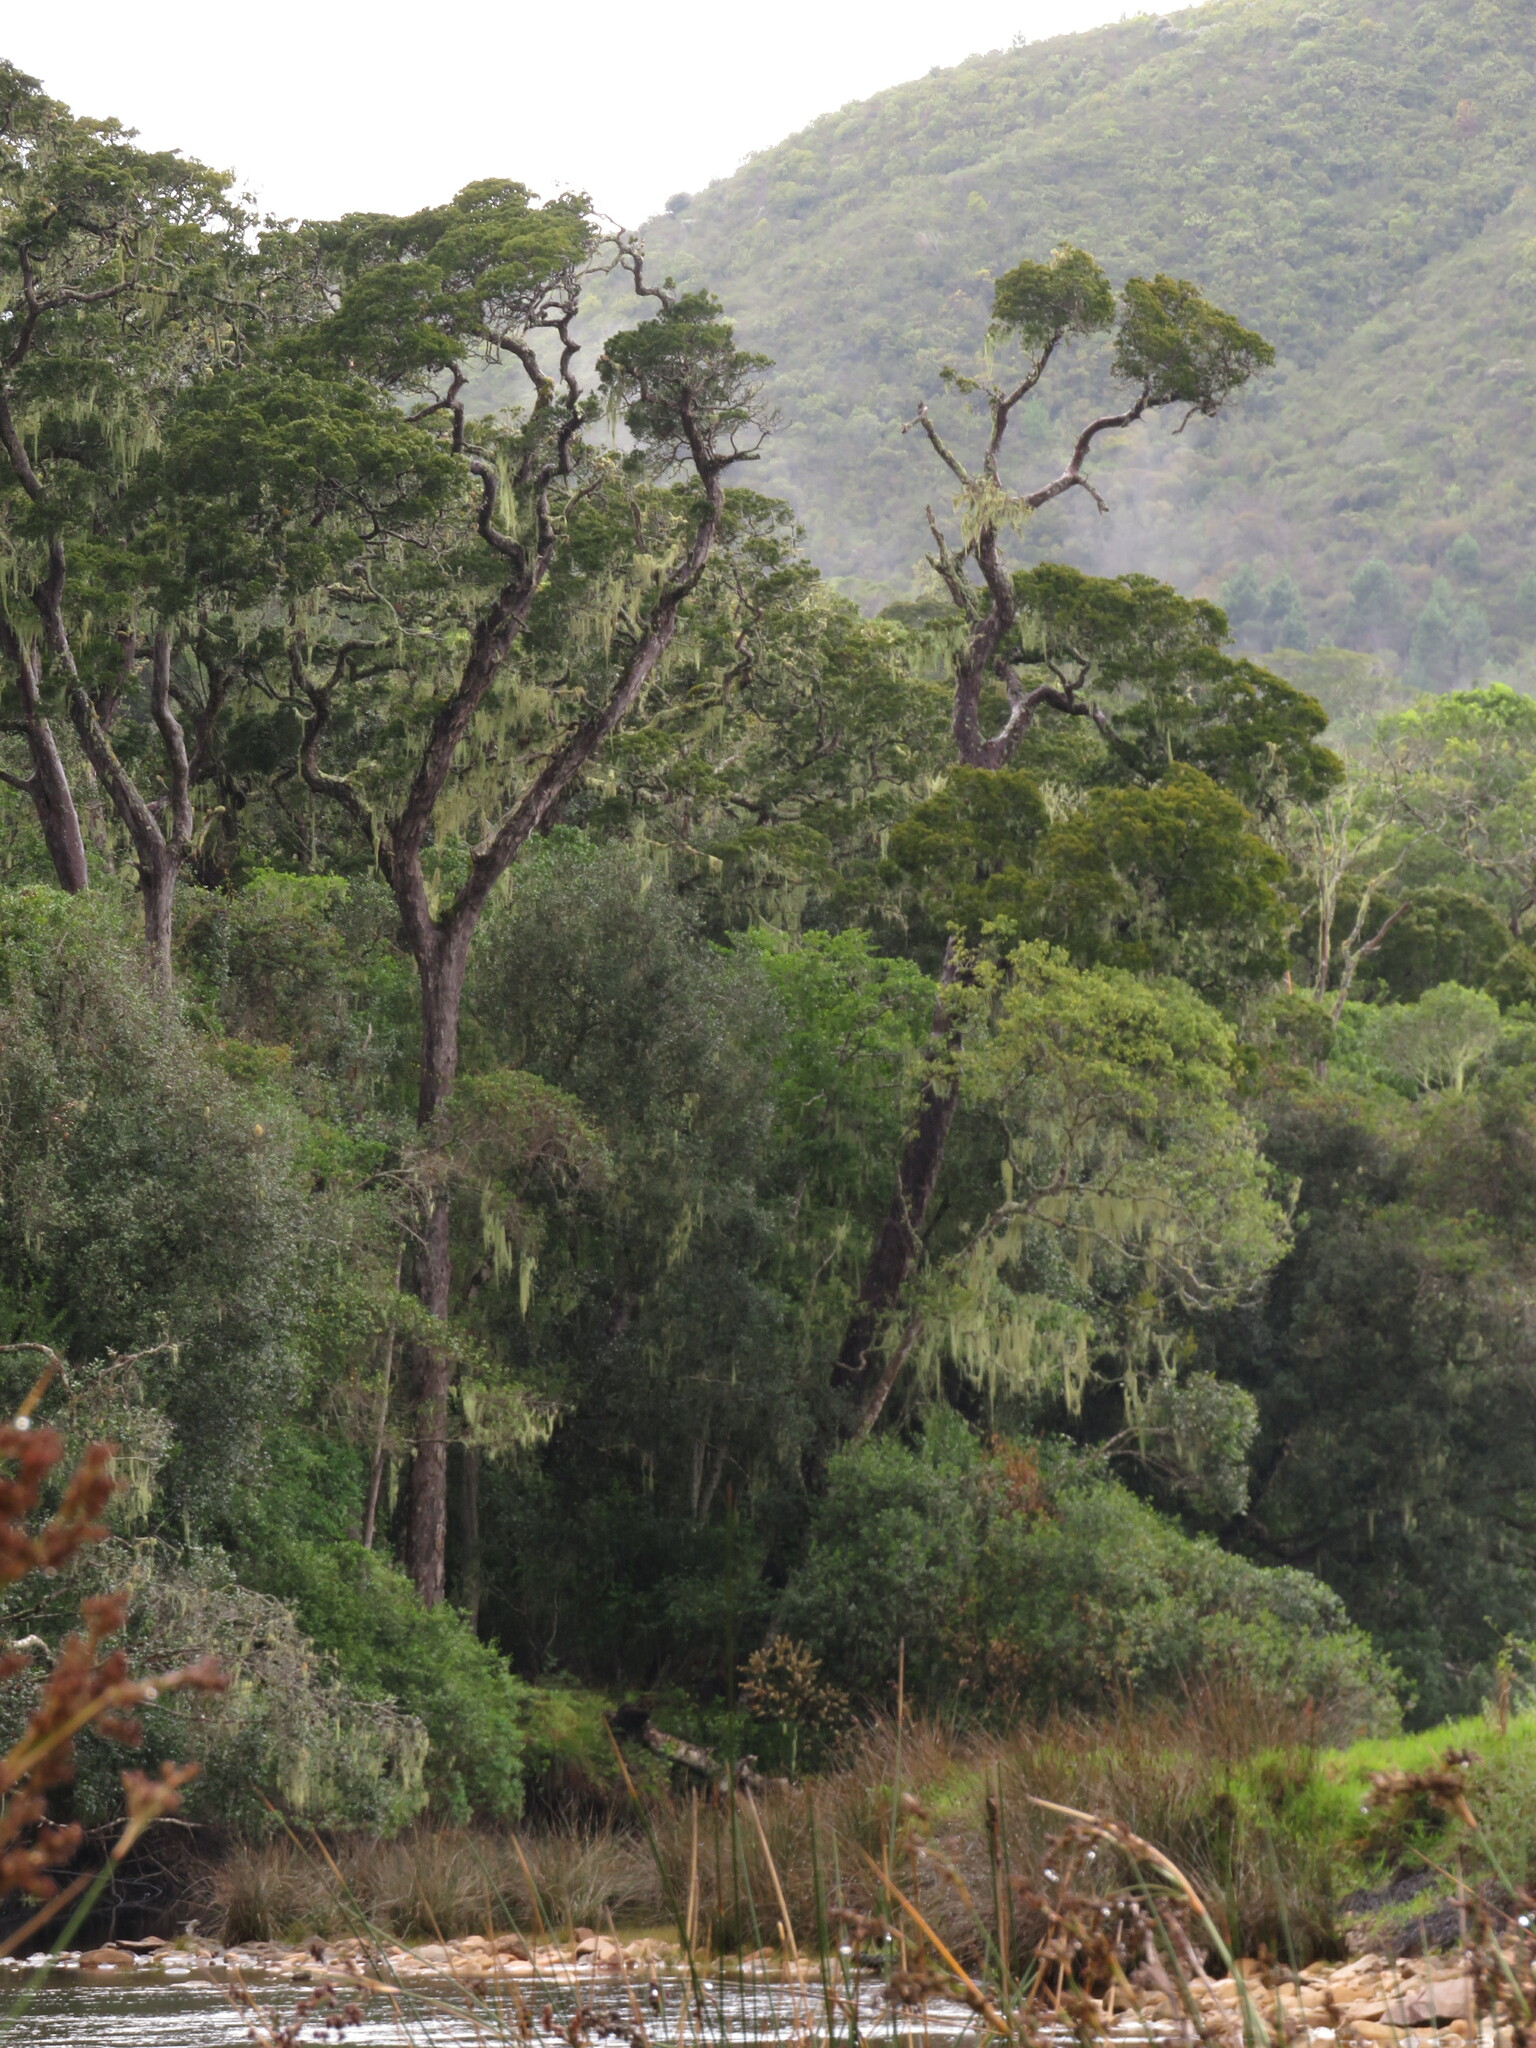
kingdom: Plantae
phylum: Tracheophyta
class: Pinopsida
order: Pinales
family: Podocarpaceae
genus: Afrocarpus
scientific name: Afrocarpus falcatus
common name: Bastard yellowwood
